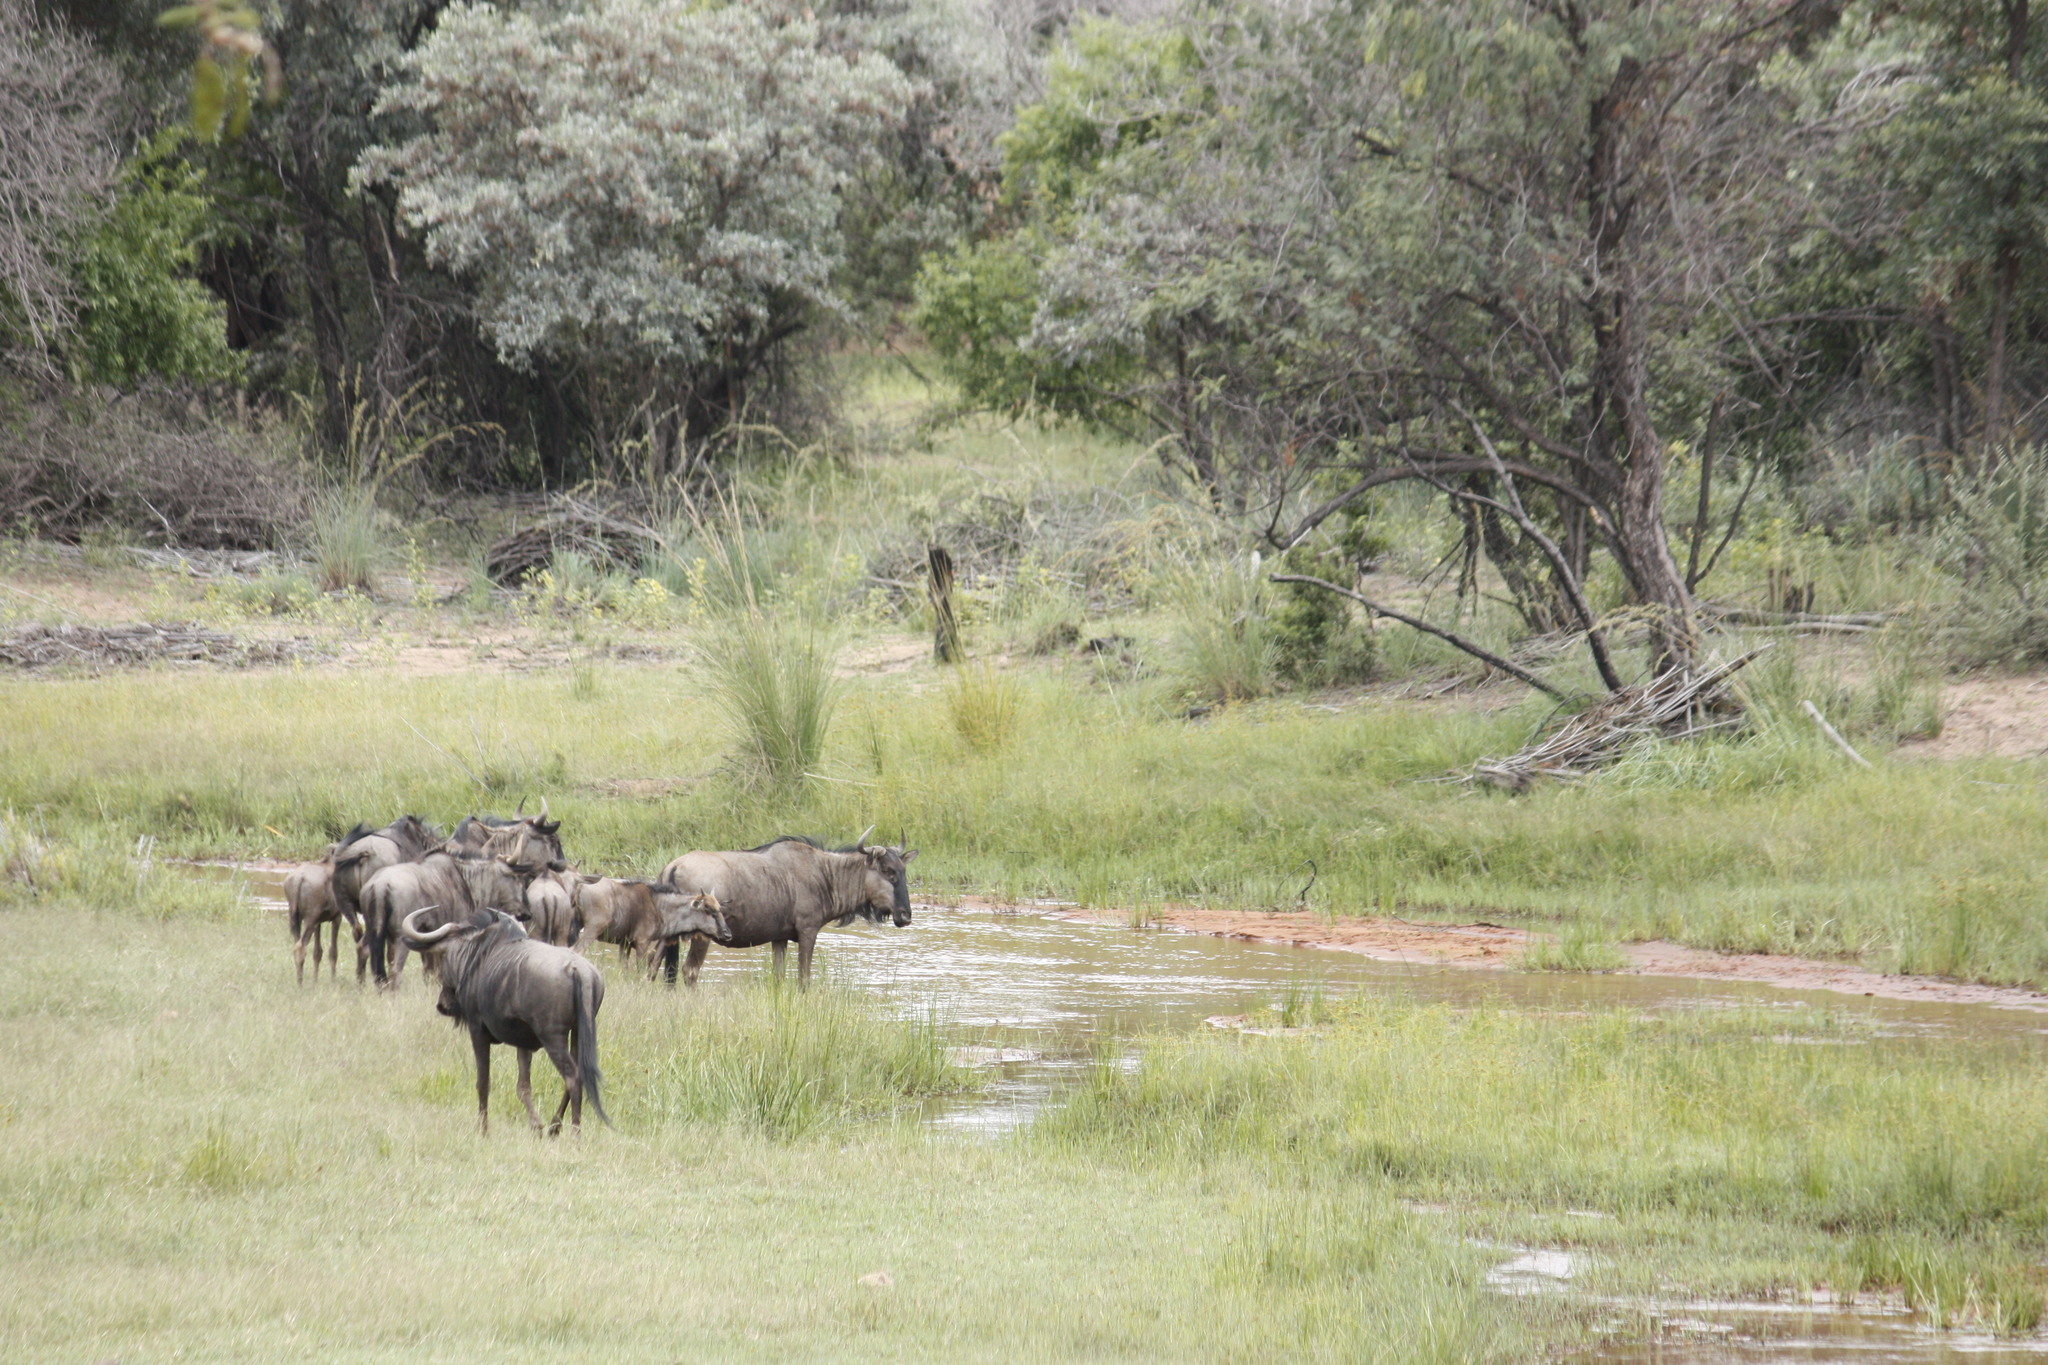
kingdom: Animalia
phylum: Chordata
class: Mammalia
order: Artiodactyla
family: Bovidae
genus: Connochaetes
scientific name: Connochaetes taurinus
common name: Blue wildebeest
